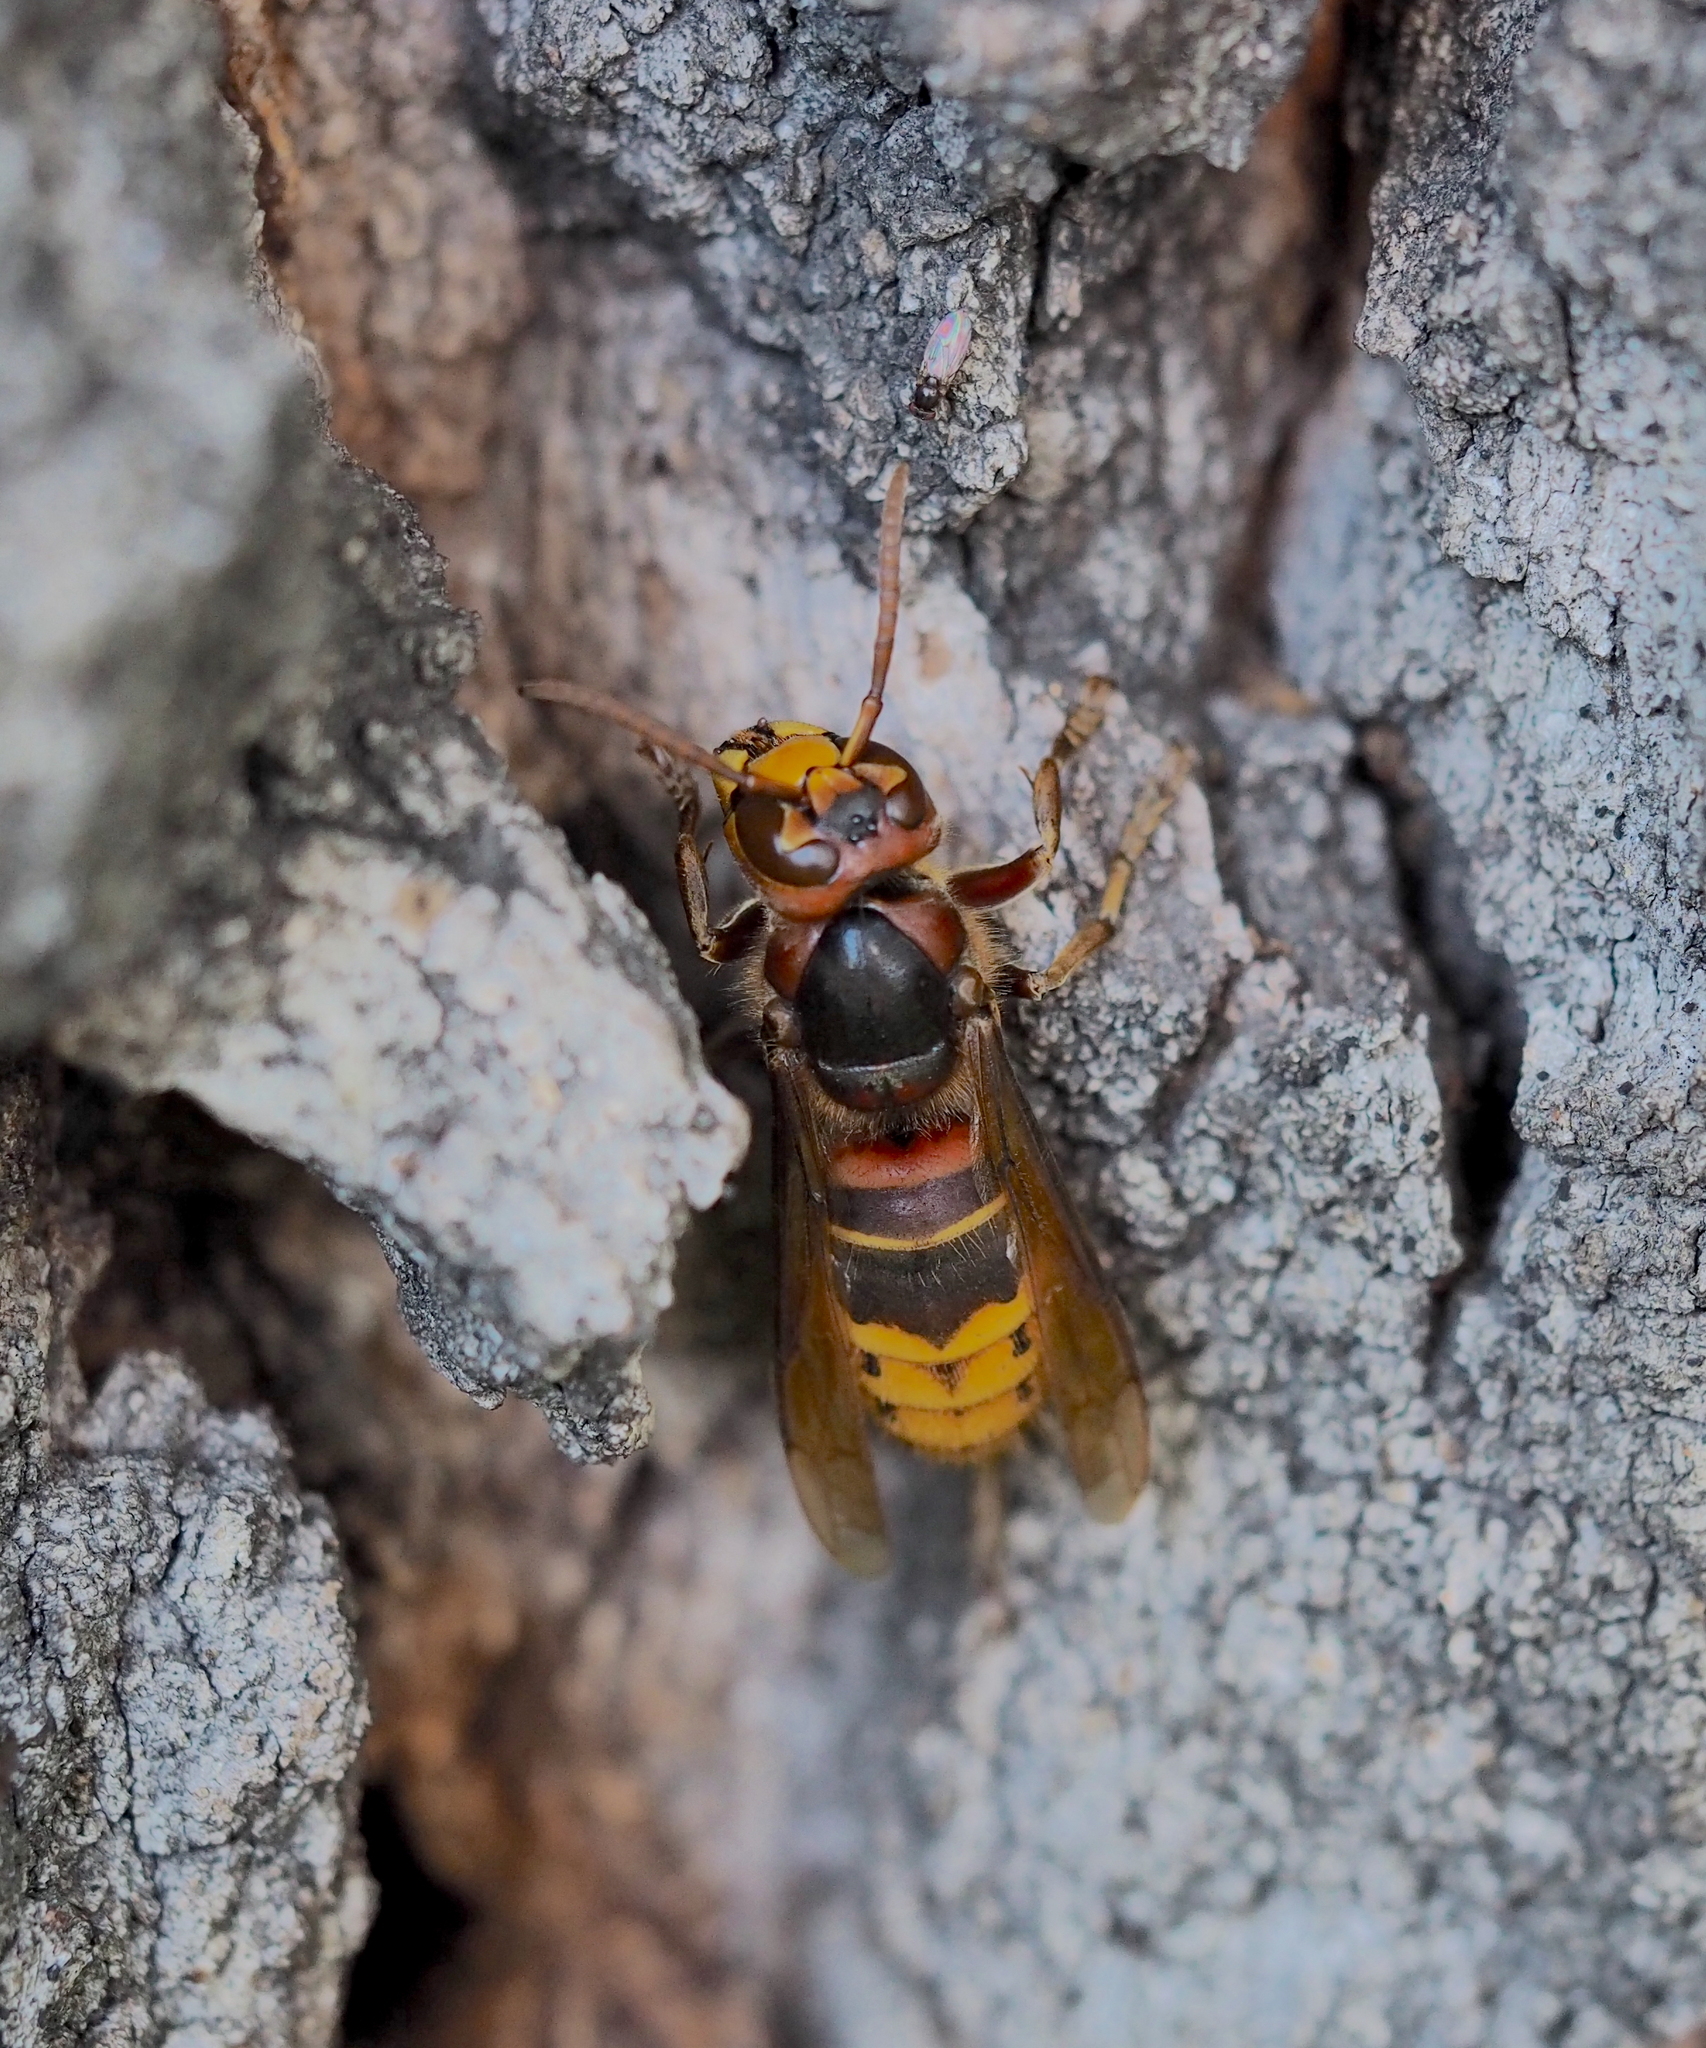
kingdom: Animalia
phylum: Arthropoda
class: Insecta
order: Hymenoptera
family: Vespidae
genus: Vespa
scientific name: Vespa crabro
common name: Hornet
